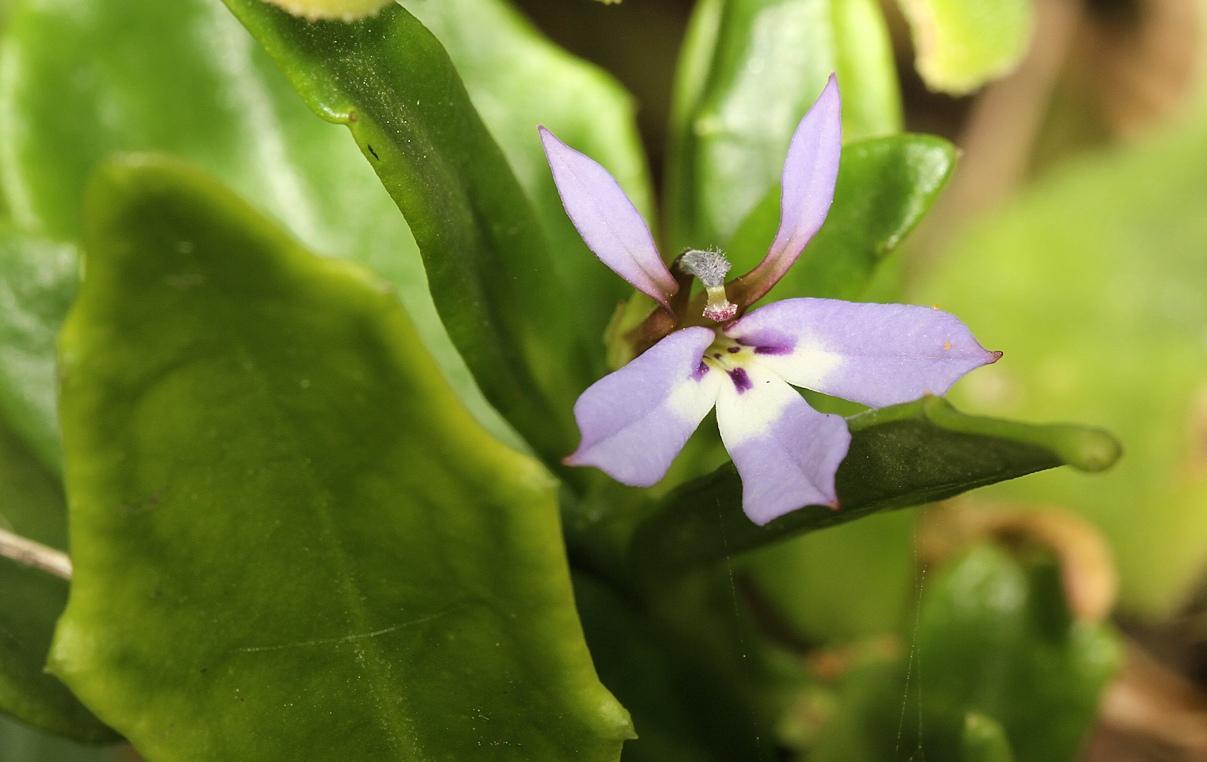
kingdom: Plantae
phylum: Tracheophyta
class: Magnoliopsida
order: Asterales
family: Campanulaceae
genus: Lobelia
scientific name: Lobelia anceps
